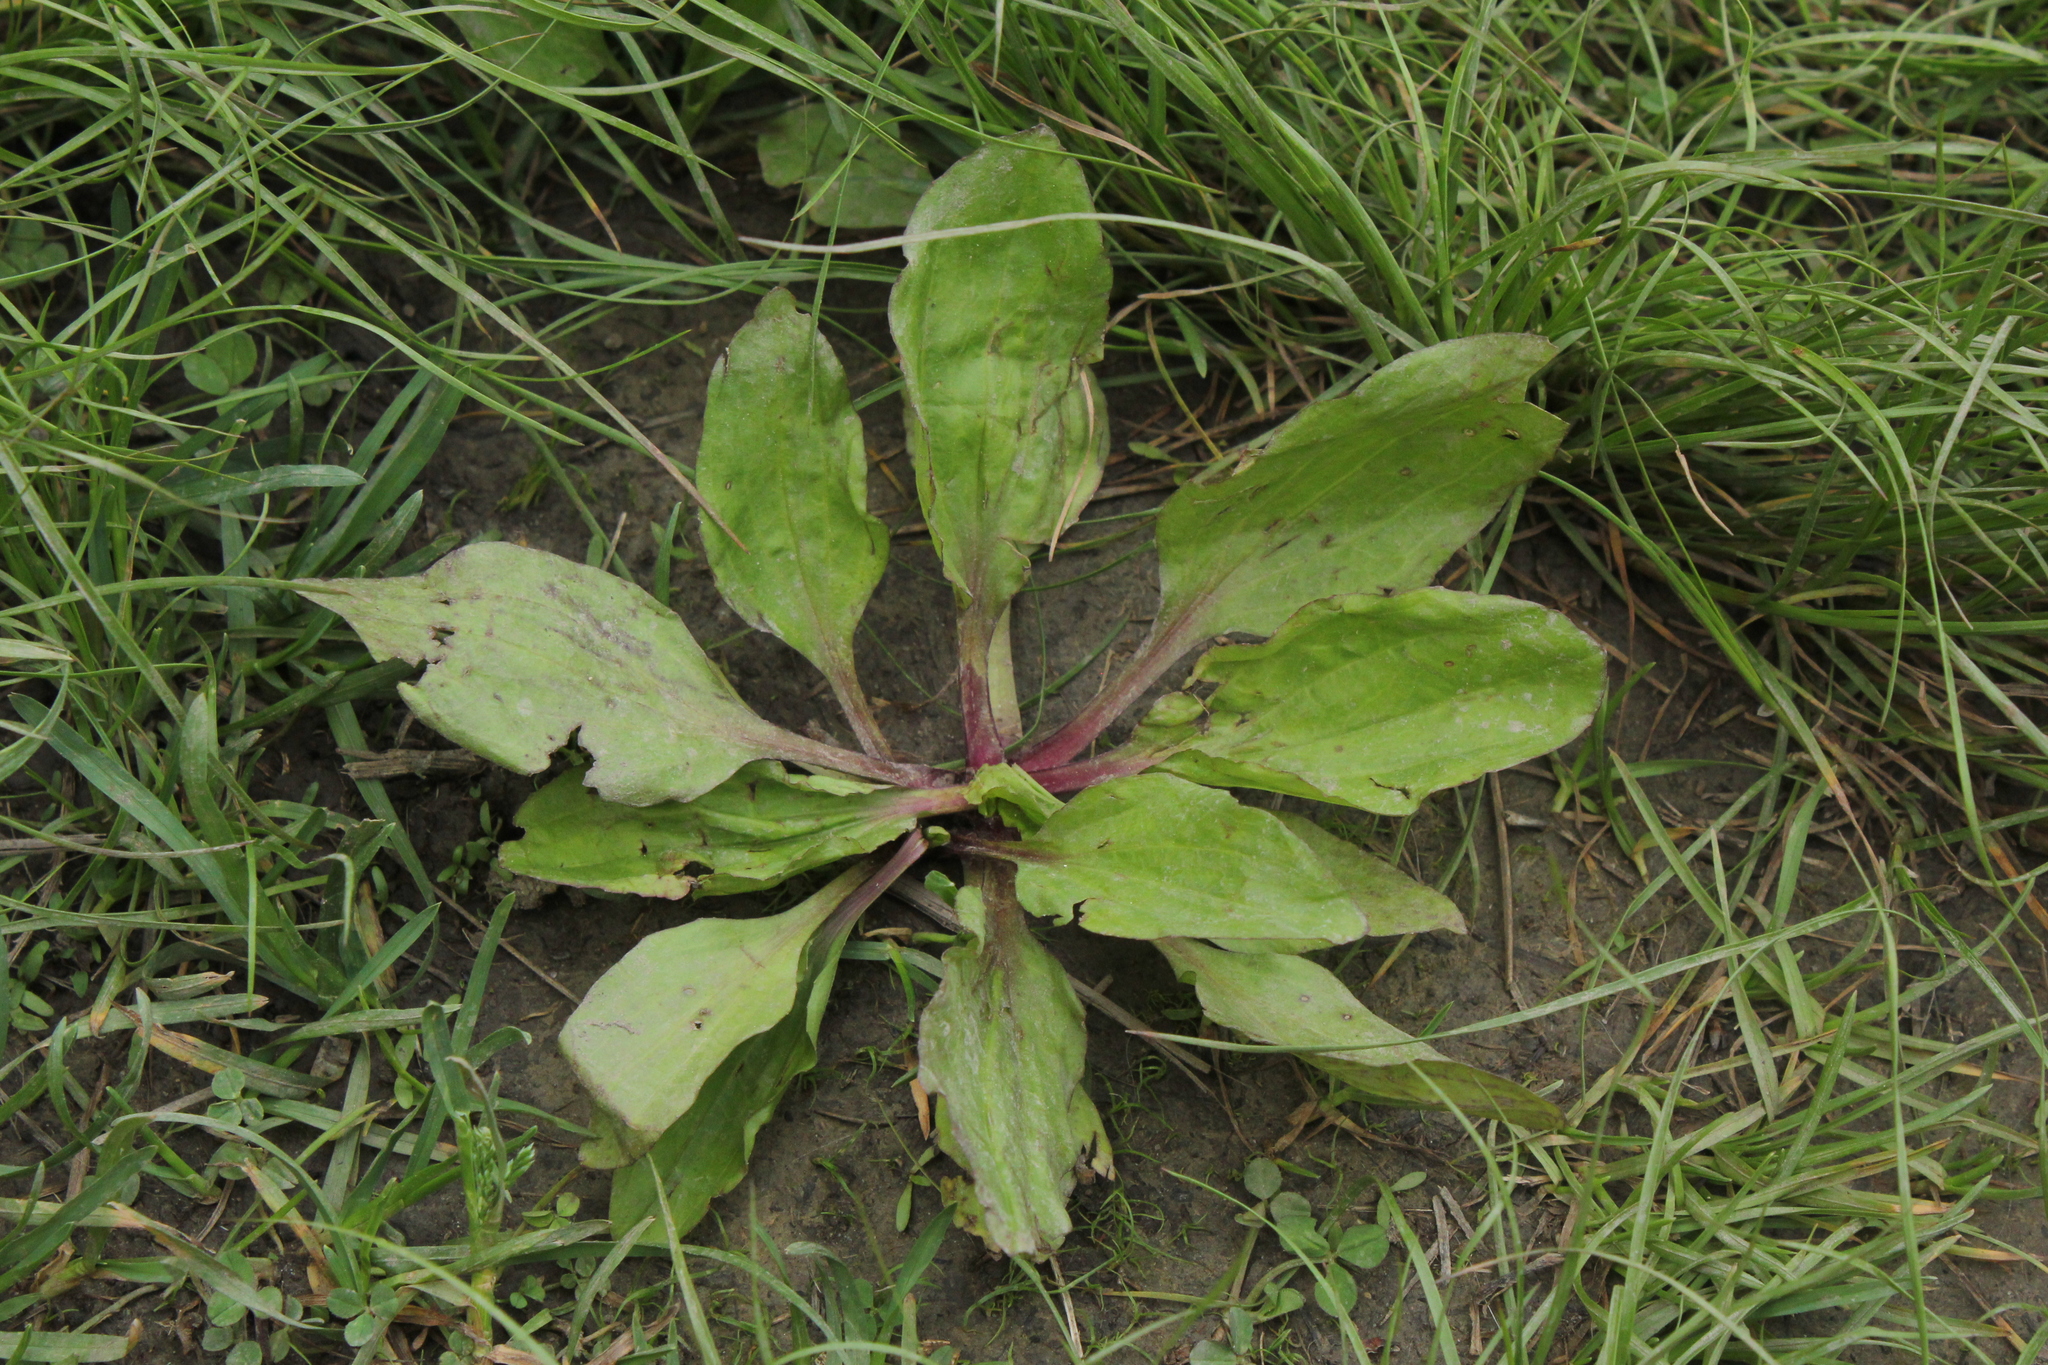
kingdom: Plantae
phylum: Tracheophyta
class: Magnoliopsida
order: Lamiales
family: Plantaginaceae
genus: Plantago
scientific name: Plantago rugelii
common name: American plantain
